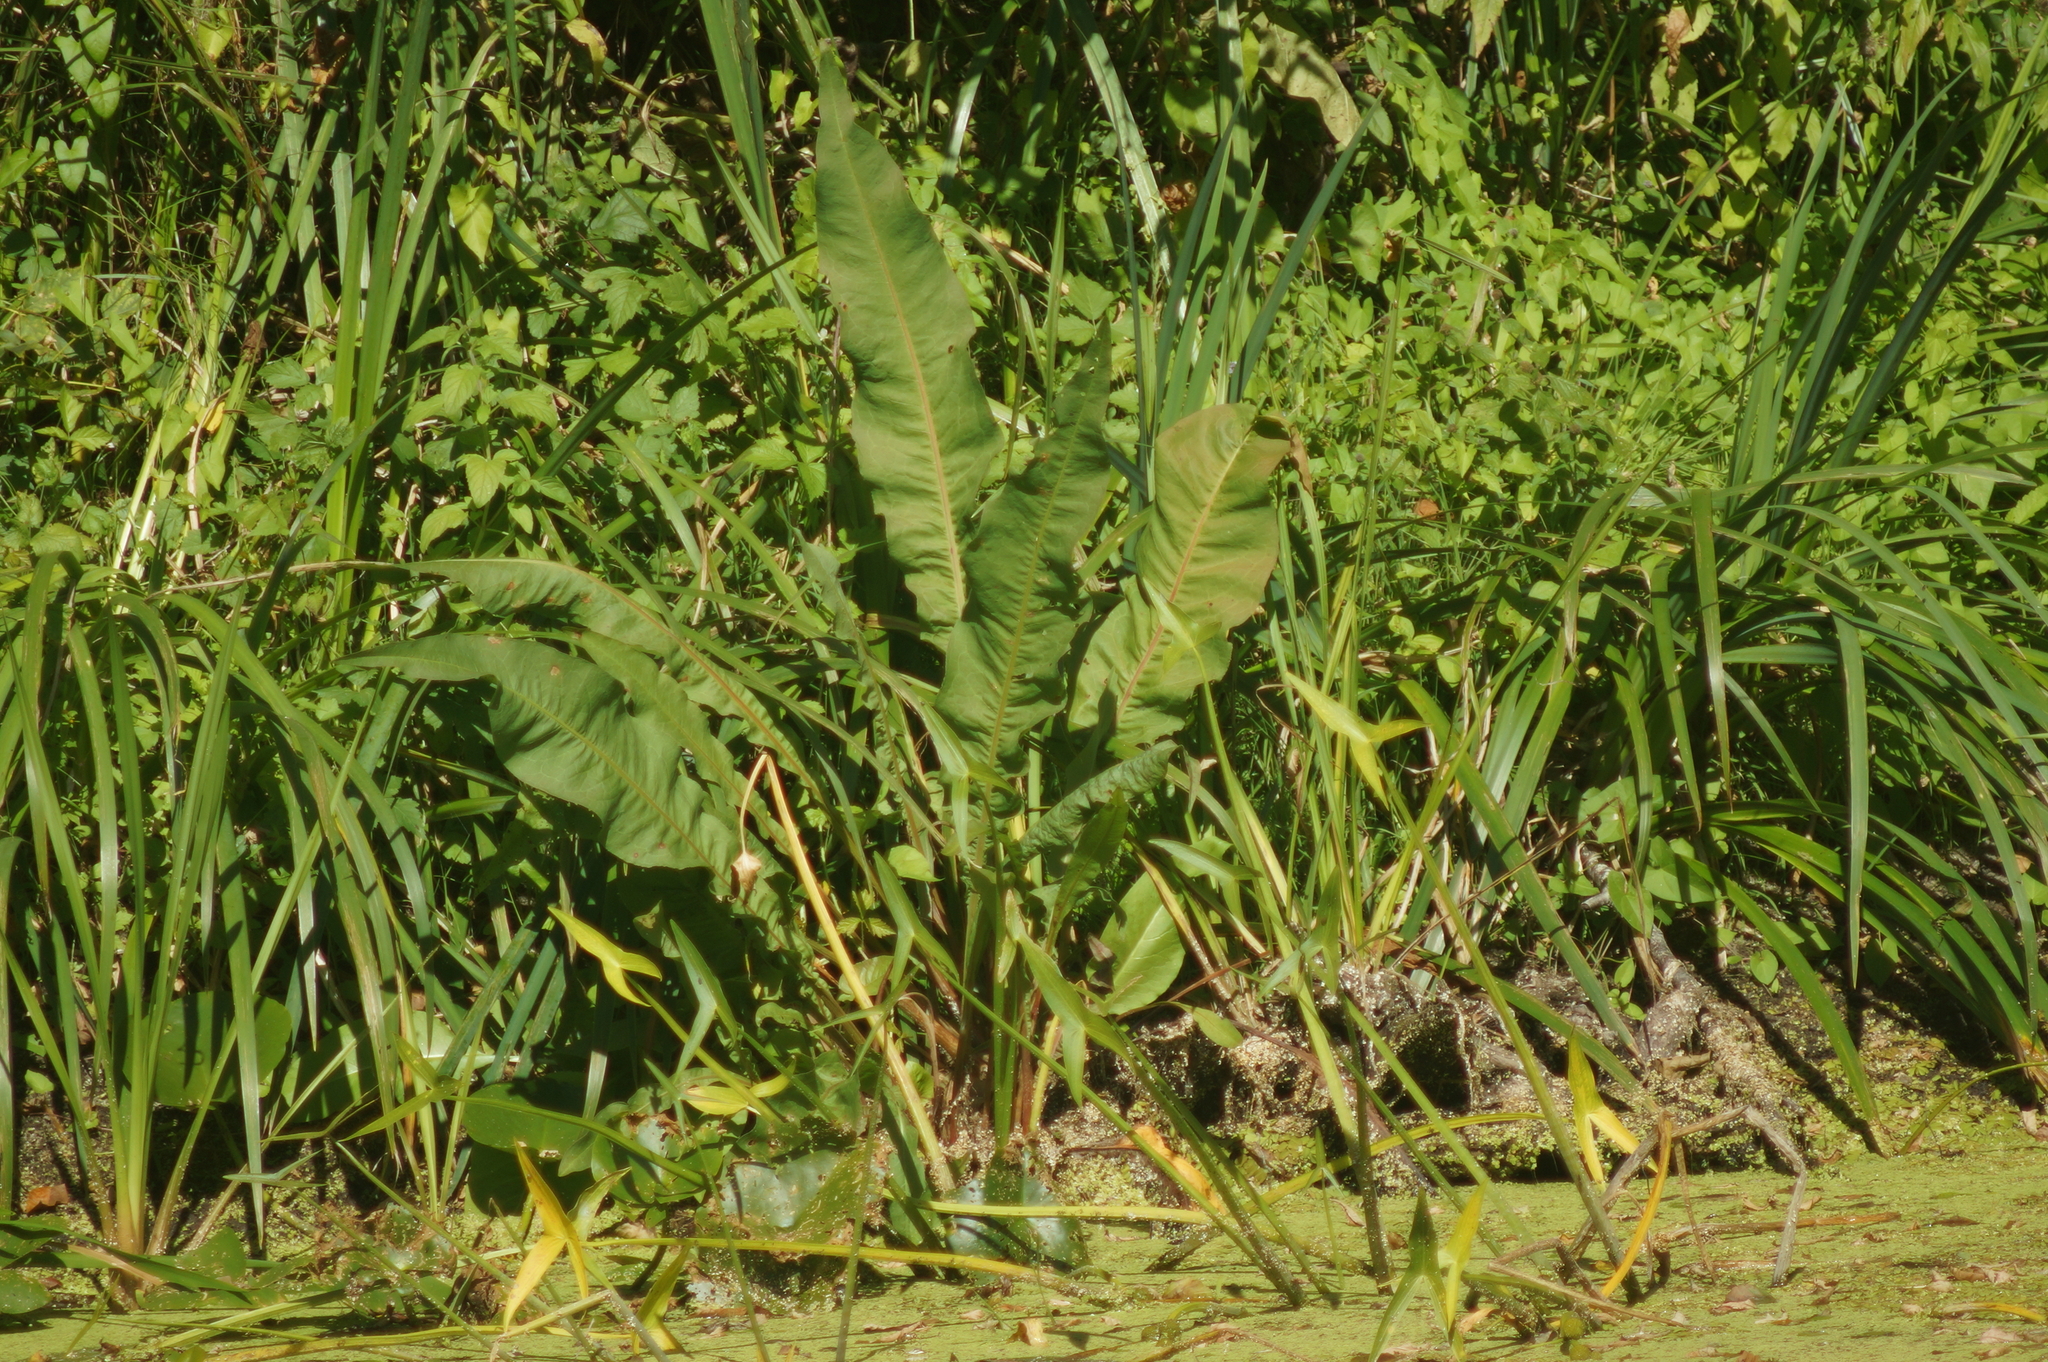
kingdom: Plantae
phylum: Tracheophyta
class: Magnoliopsida
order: Caryophyllales
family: Polygonaceae
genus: Rumex
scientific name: Rumex hydrolapathum
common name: Water dock
